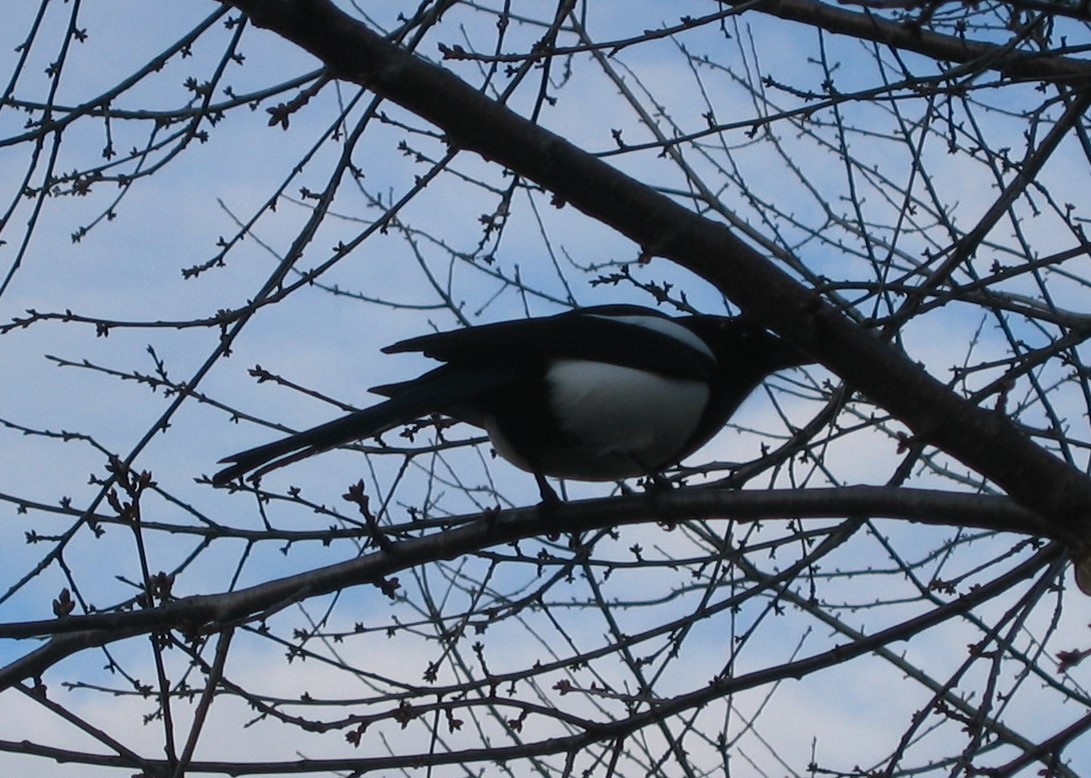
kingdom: Animalia
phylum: Chordata
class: Aves
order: Passeriformes
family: Corvidae
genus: Pica
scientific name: Pica pica
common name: Eurasian magpie
